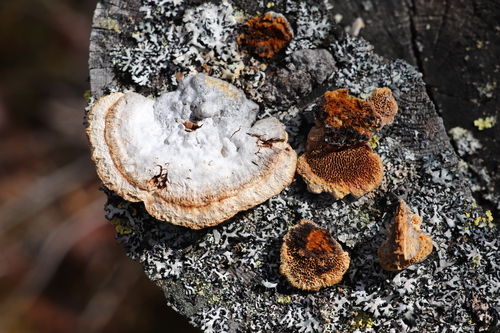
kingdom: Fungi
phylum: Basidiomycota
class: Agaricomycetes
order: Gloeophyllales
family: Gloeophyllaceae
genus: Gloeophyllum
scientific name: Gloeophyllum protractum
